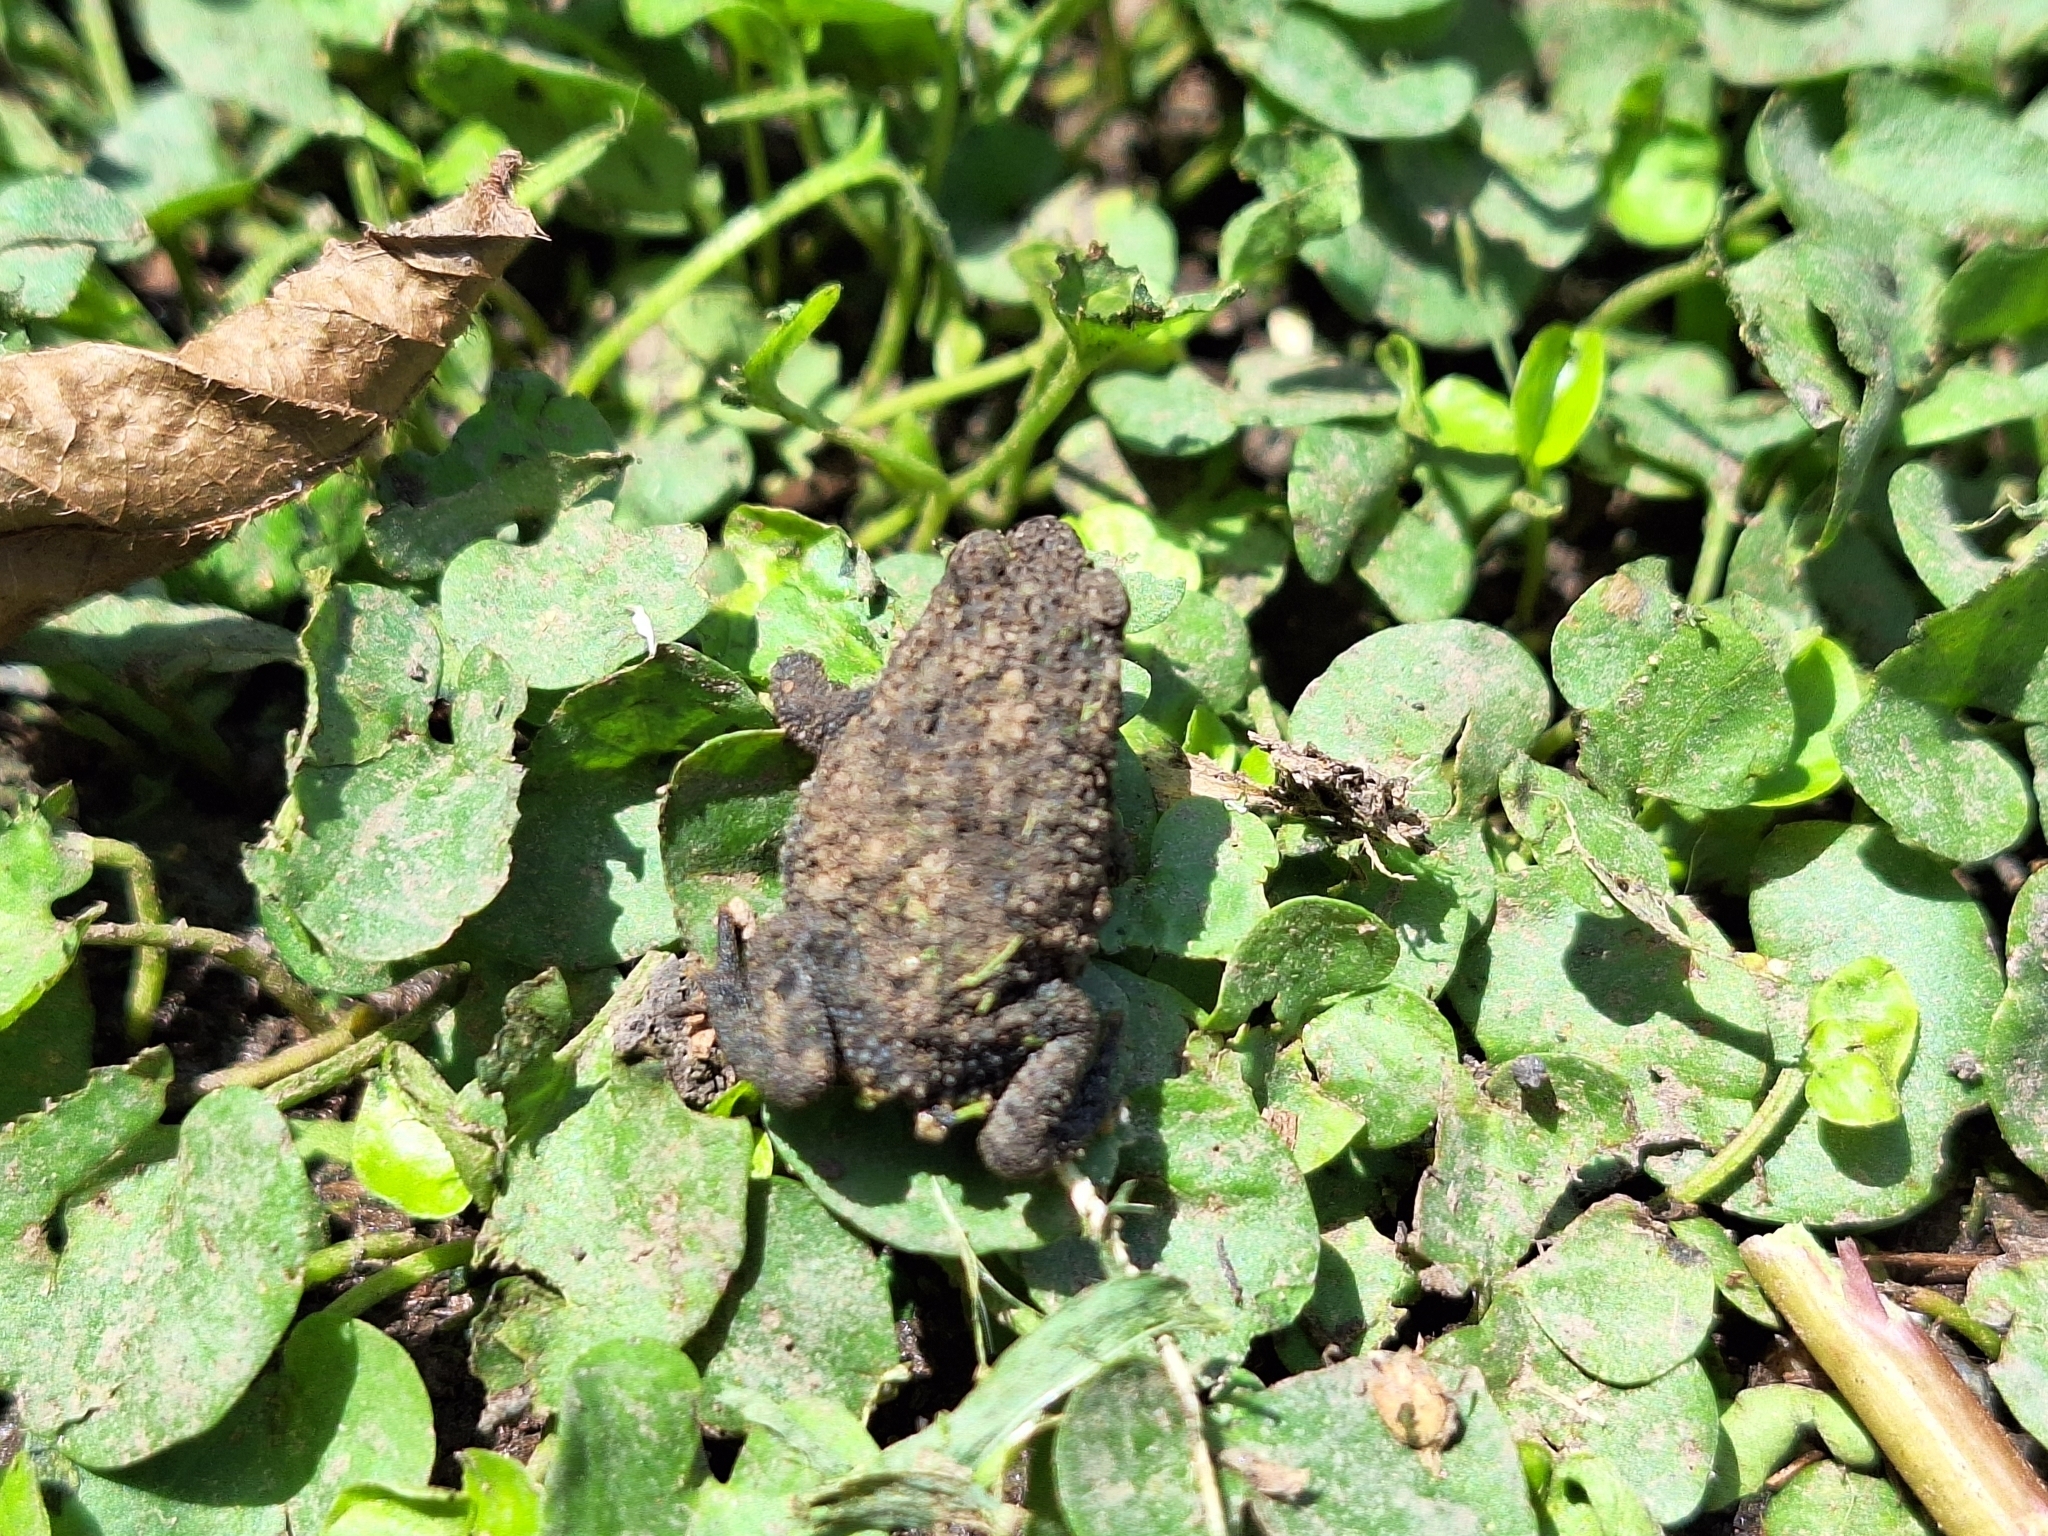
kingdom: Animalia
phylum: Chordata
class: Amphibia
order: Anura
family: Bufonidae
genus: Rhinella
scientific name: Rhinella dorbignyi
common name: D´orbigny’s toad
